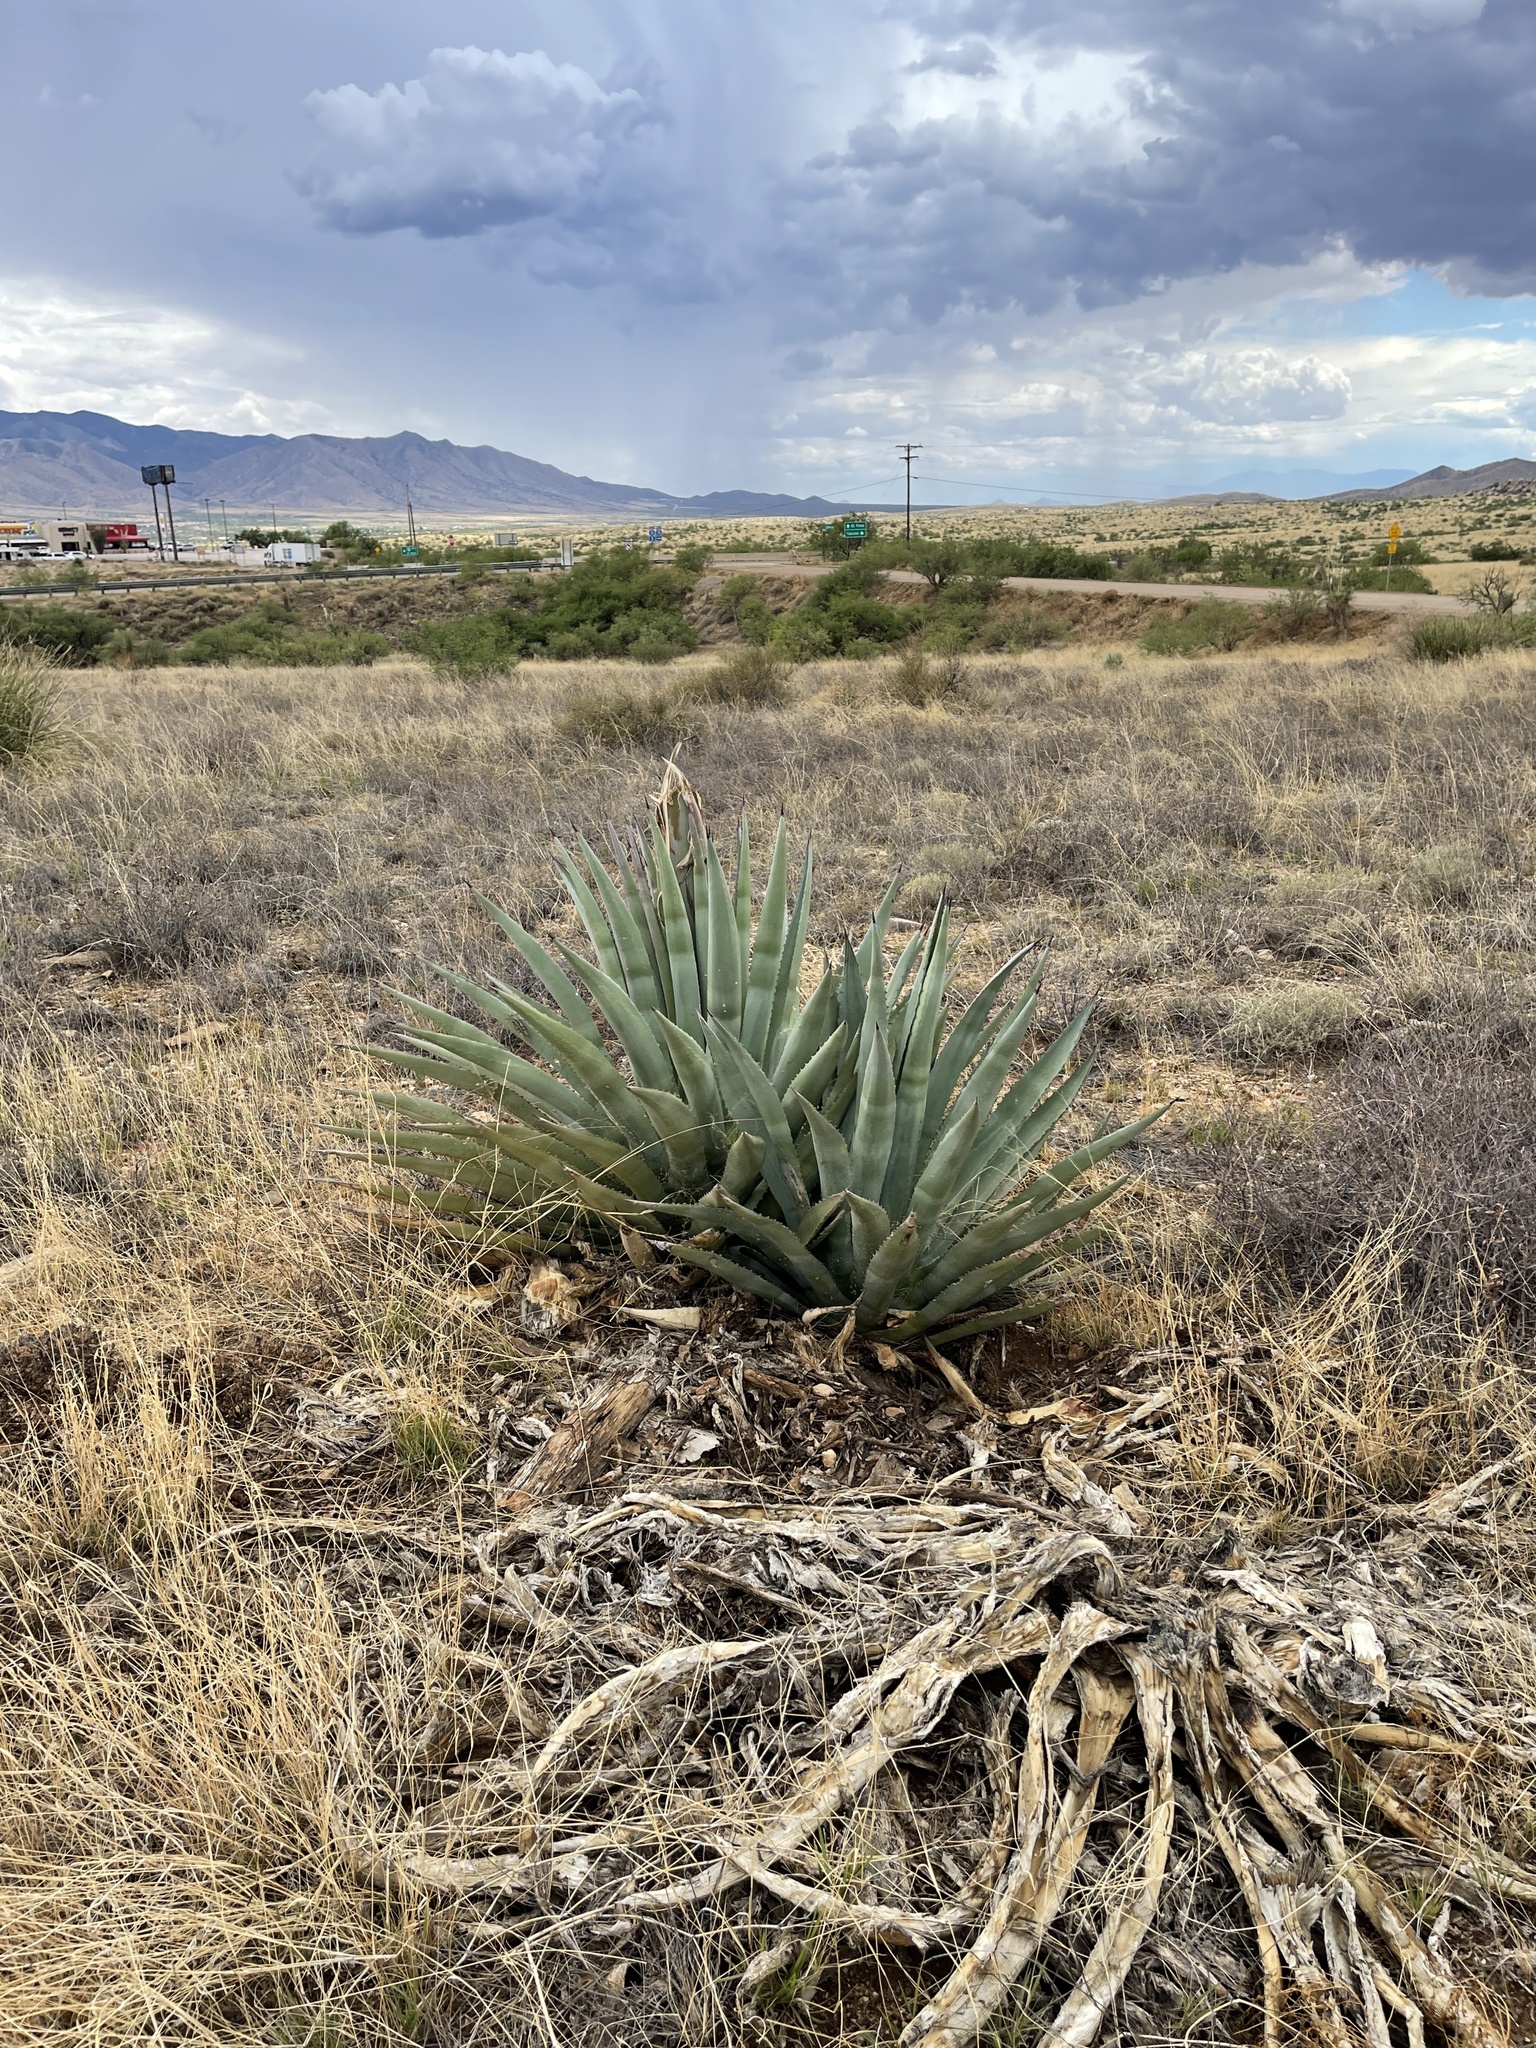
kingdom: Plantae
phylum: Tracheophyta
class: Liliopsida
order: Asparagales
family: Asparagaceae
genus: Agave
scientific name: Agave palmeri
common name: Palmer agave
